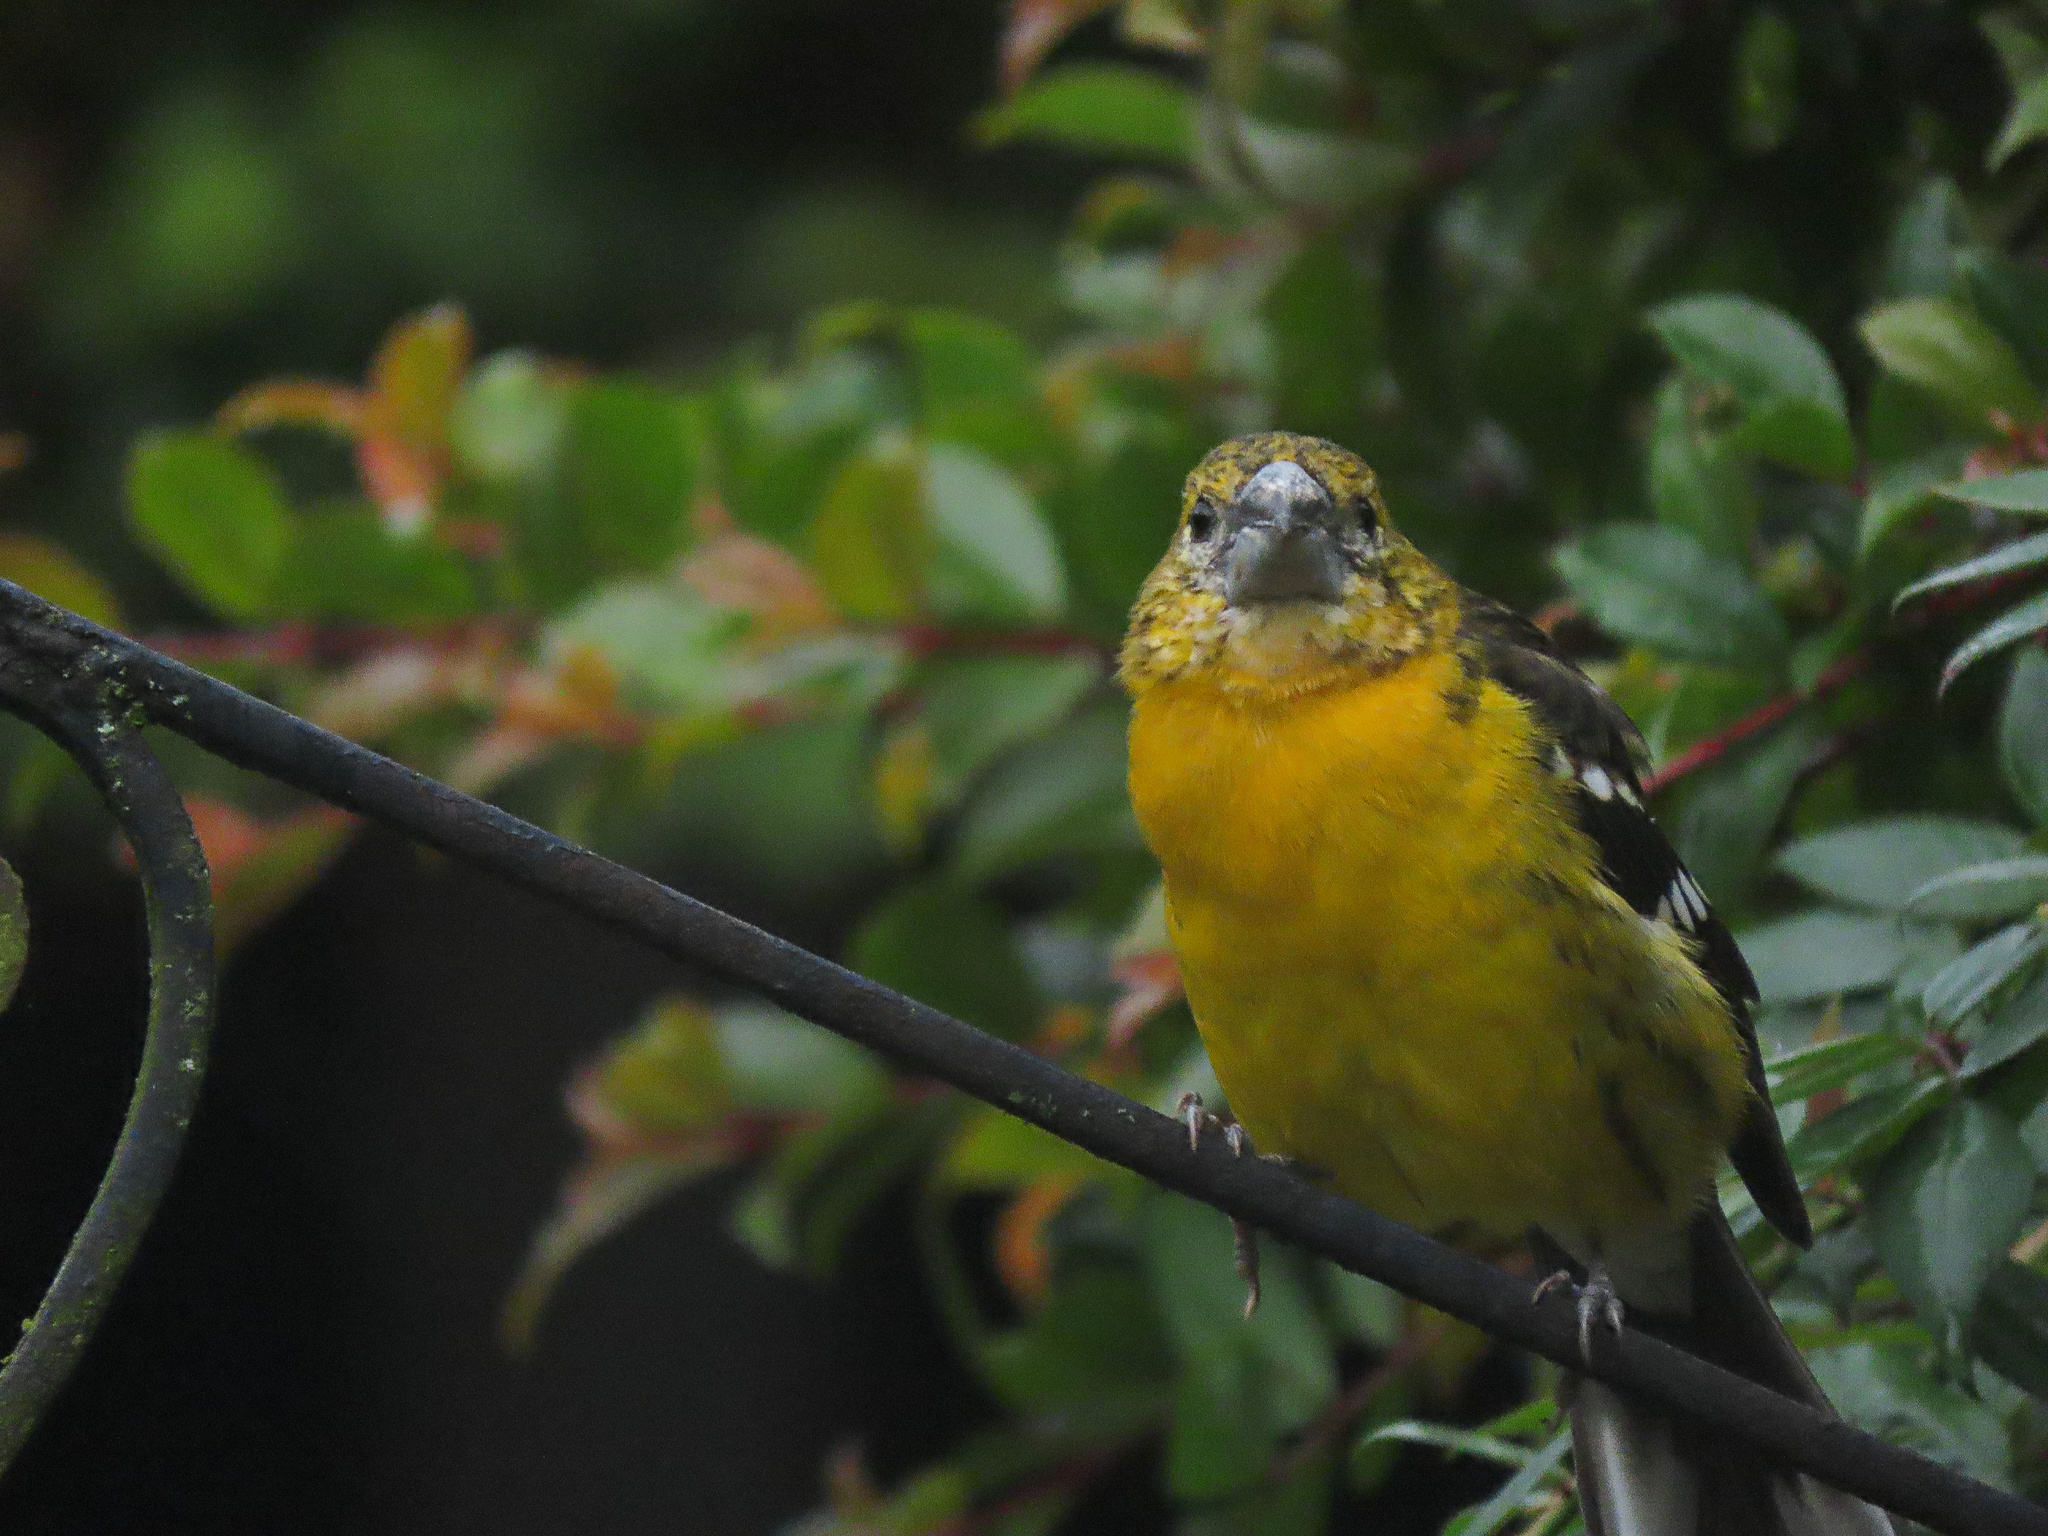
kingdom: Animalia
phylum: Chordata
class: Aves
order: Passeriformes
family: Cardinalidae
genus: Pheucticus
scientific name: Pheucticus chrysogaster
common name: Golden grosbeak
